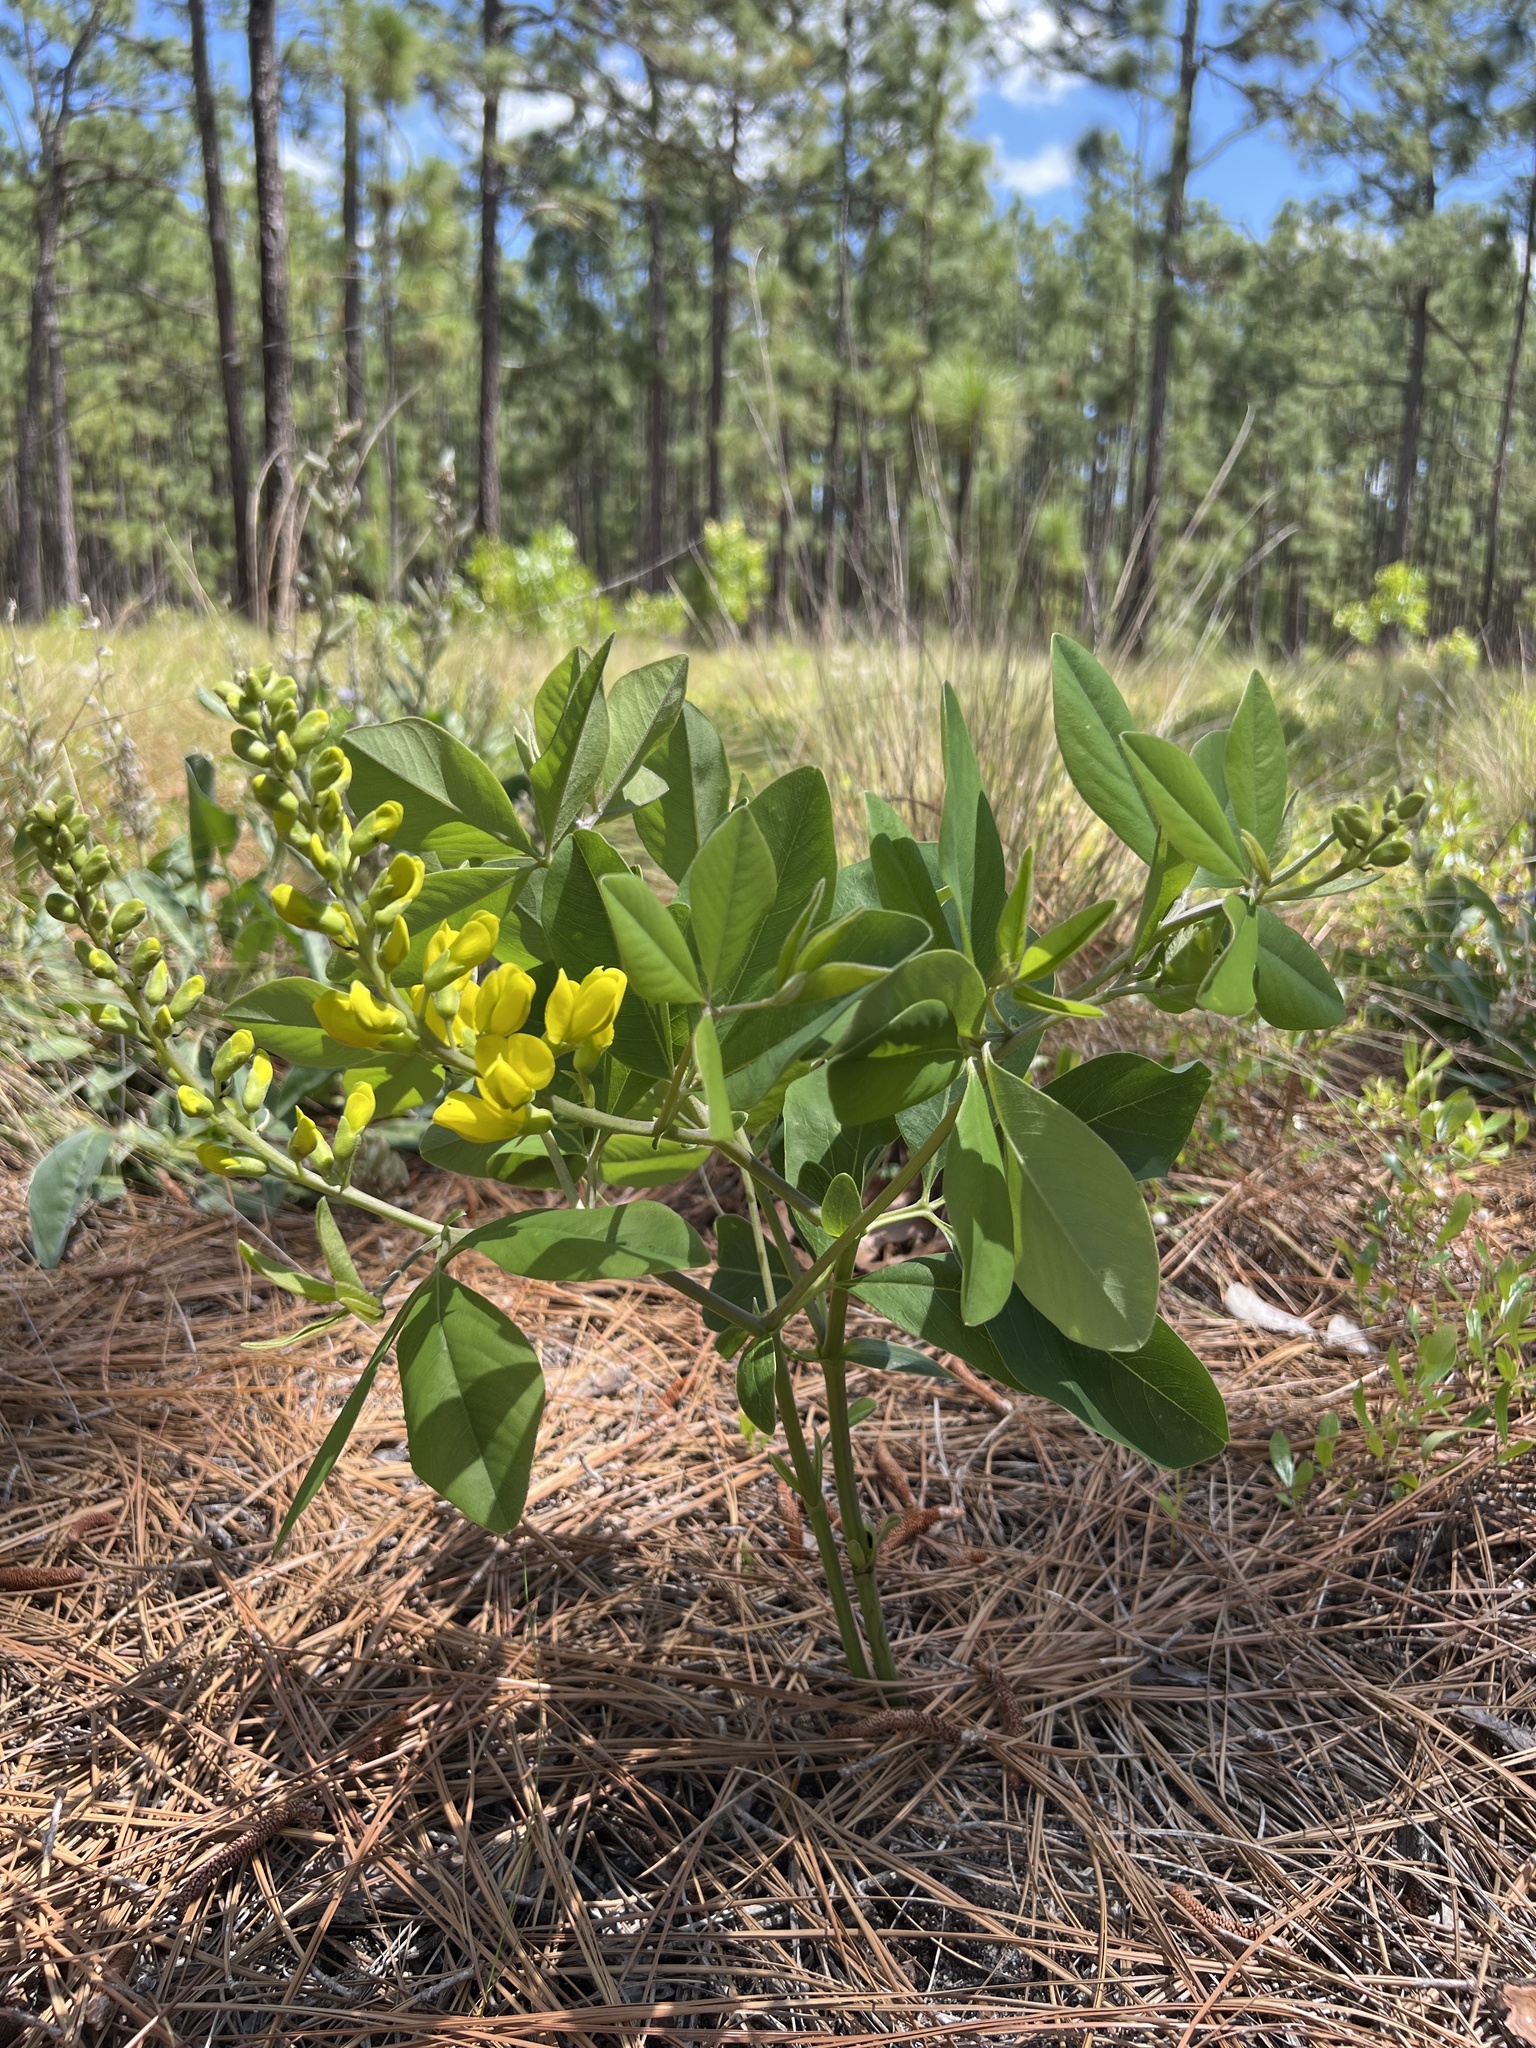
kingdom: Plantae
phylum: Tracheophyta
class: Magnoliopsida
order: Fabales
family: Fabaceae
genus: Baptisia
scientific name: Baptisia cinerea
